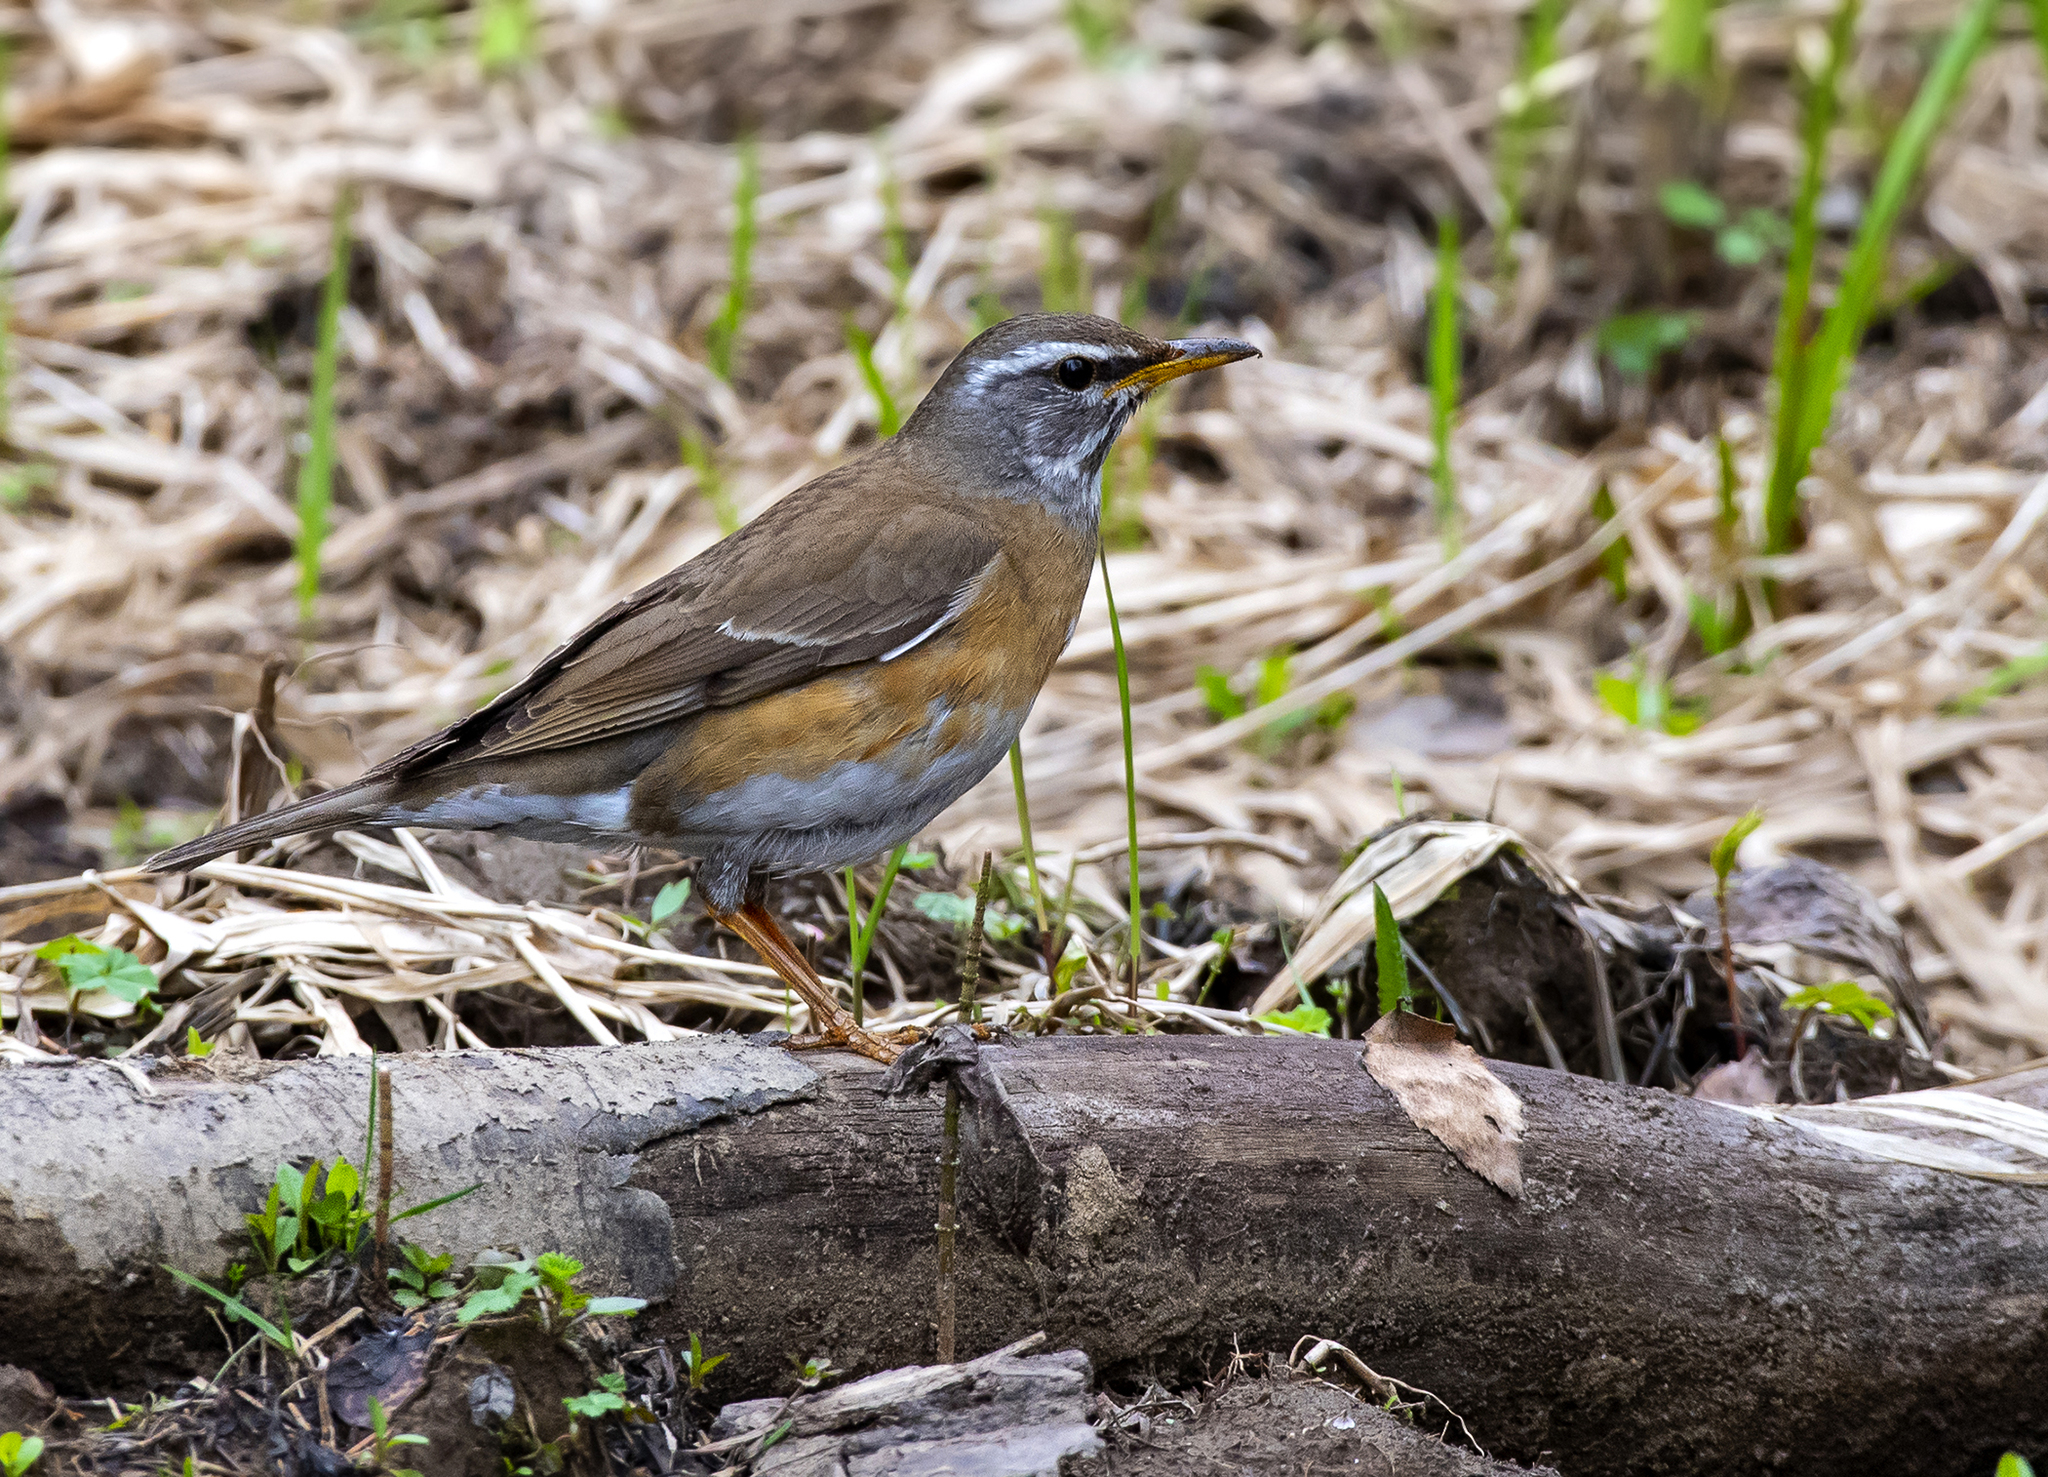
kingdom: Animalia
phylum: Chordata
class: Aves
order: Passeriformes
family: Turdidae
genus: Turdus
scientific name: Turdus obscurus
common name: Eyebrowed thrush
